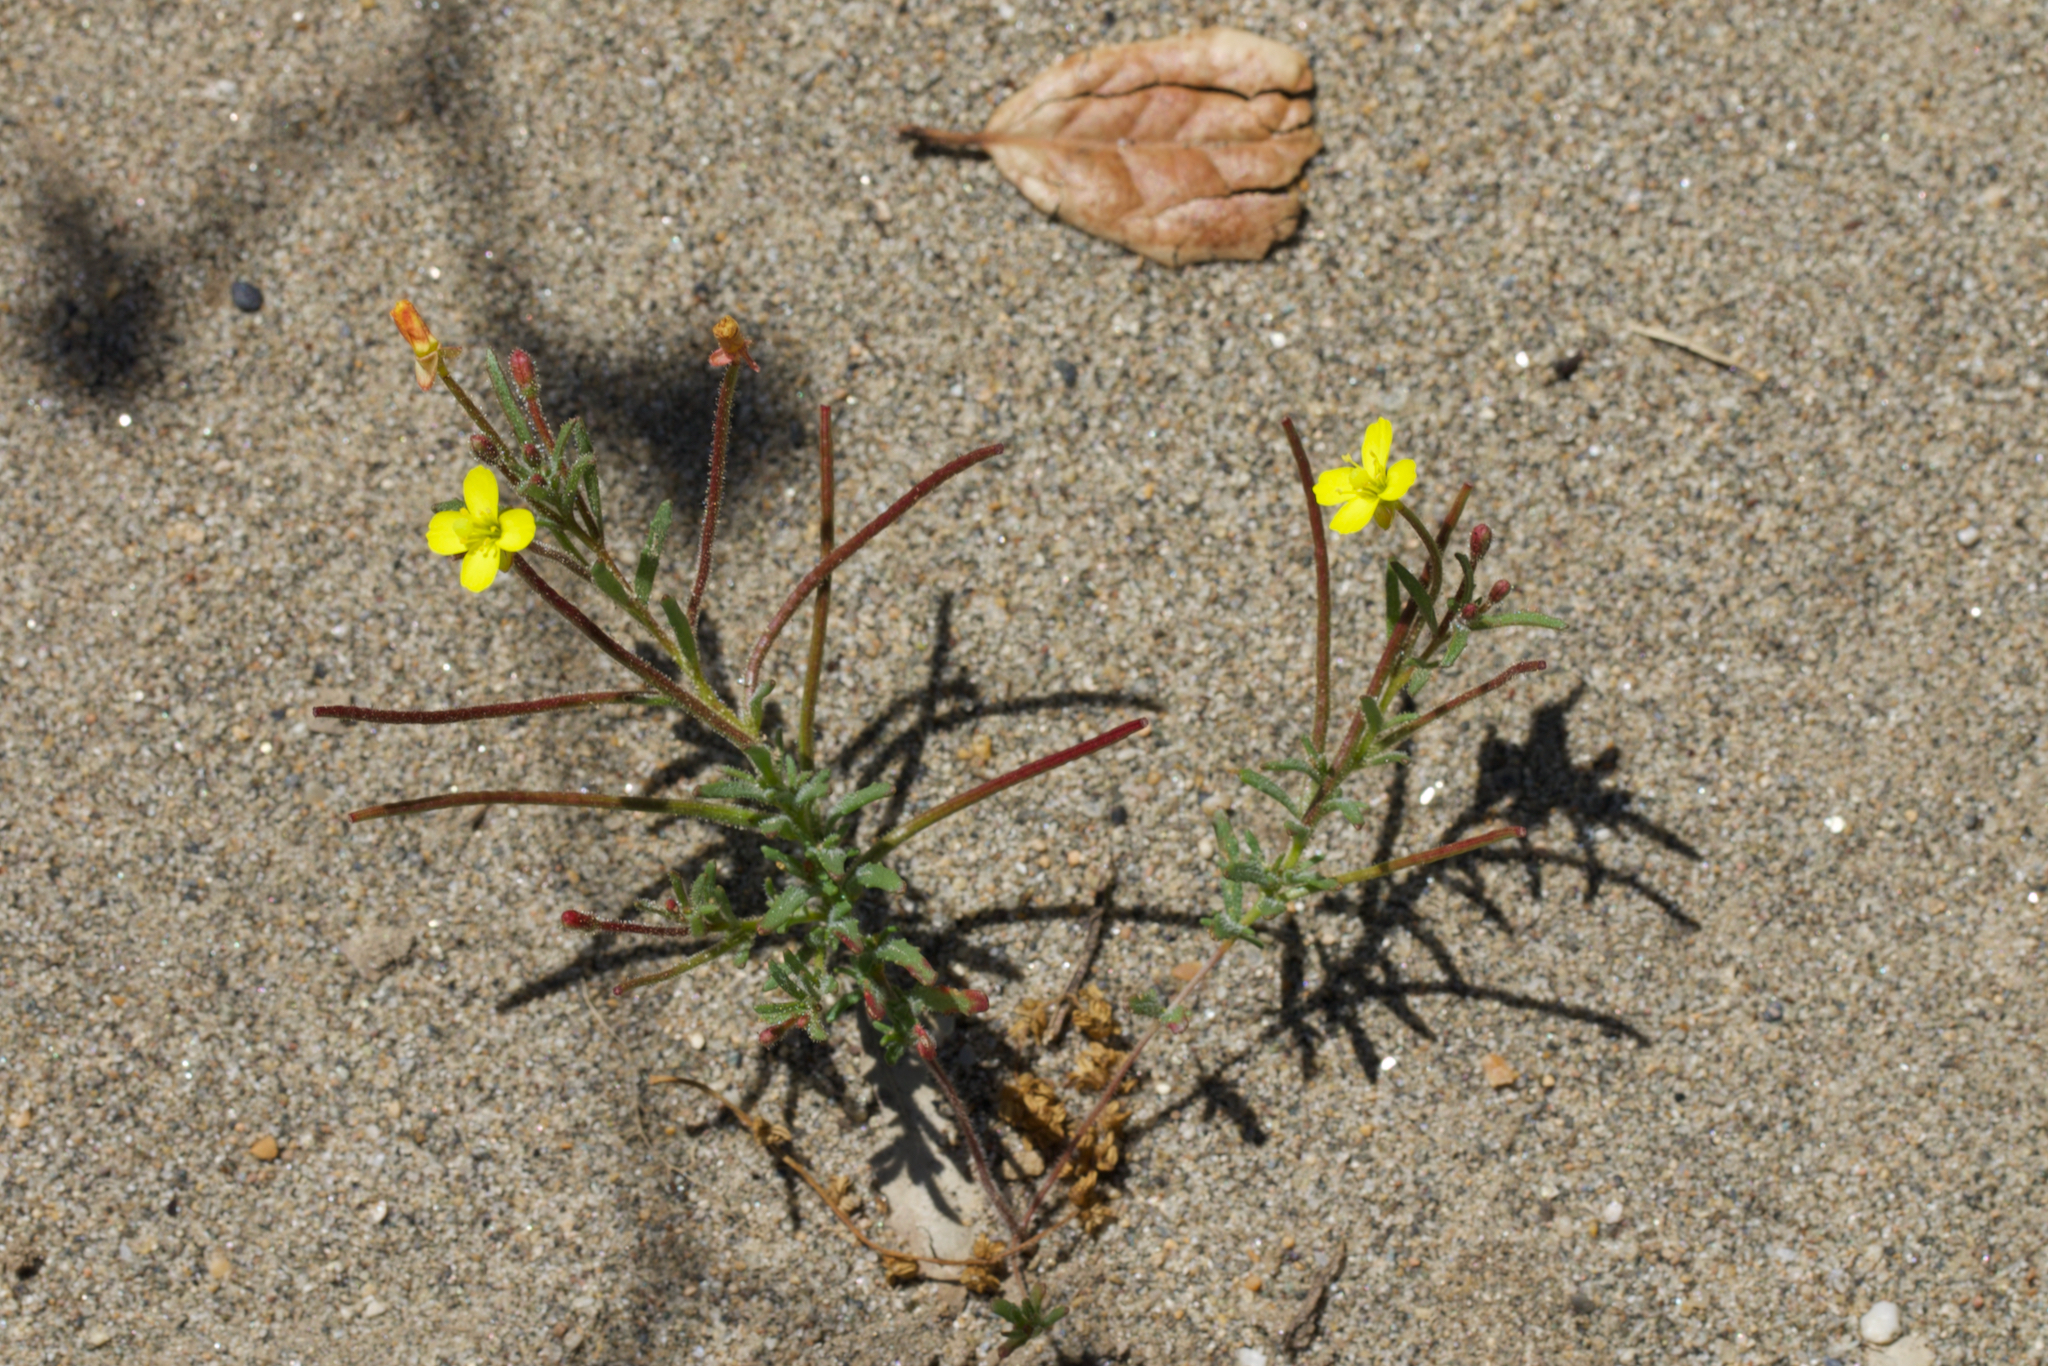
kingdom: Plantae
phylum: Tracheophyta
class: Magnoliopsida
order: Myrtales
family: Onagraceae
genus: Camissonia
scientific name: Camissonia contorta
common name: Contorted suncup
